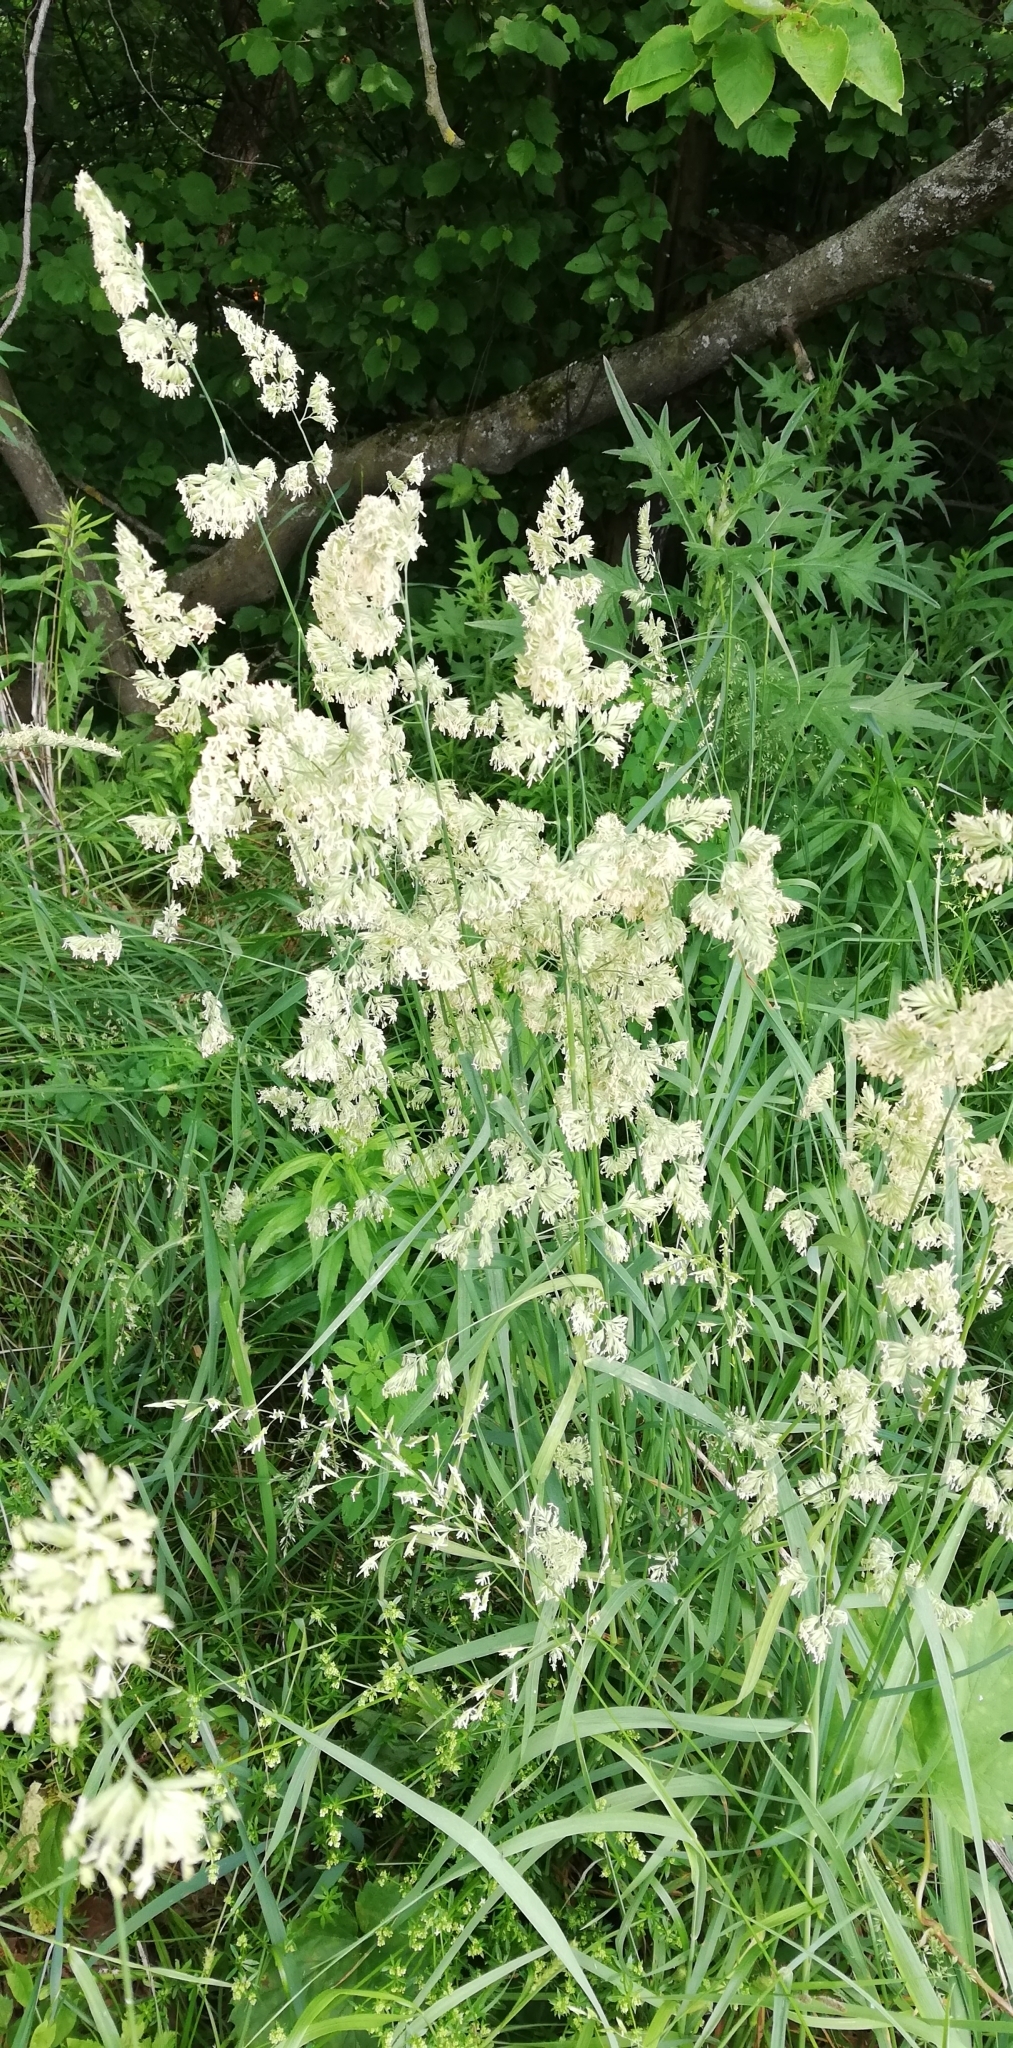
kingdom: Plantae
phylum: Tracheophyta
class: Liliopsida
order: Poales
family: Poaceae
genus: Dactylis
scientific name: Dactylis glomerata
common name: Orchardgrass
